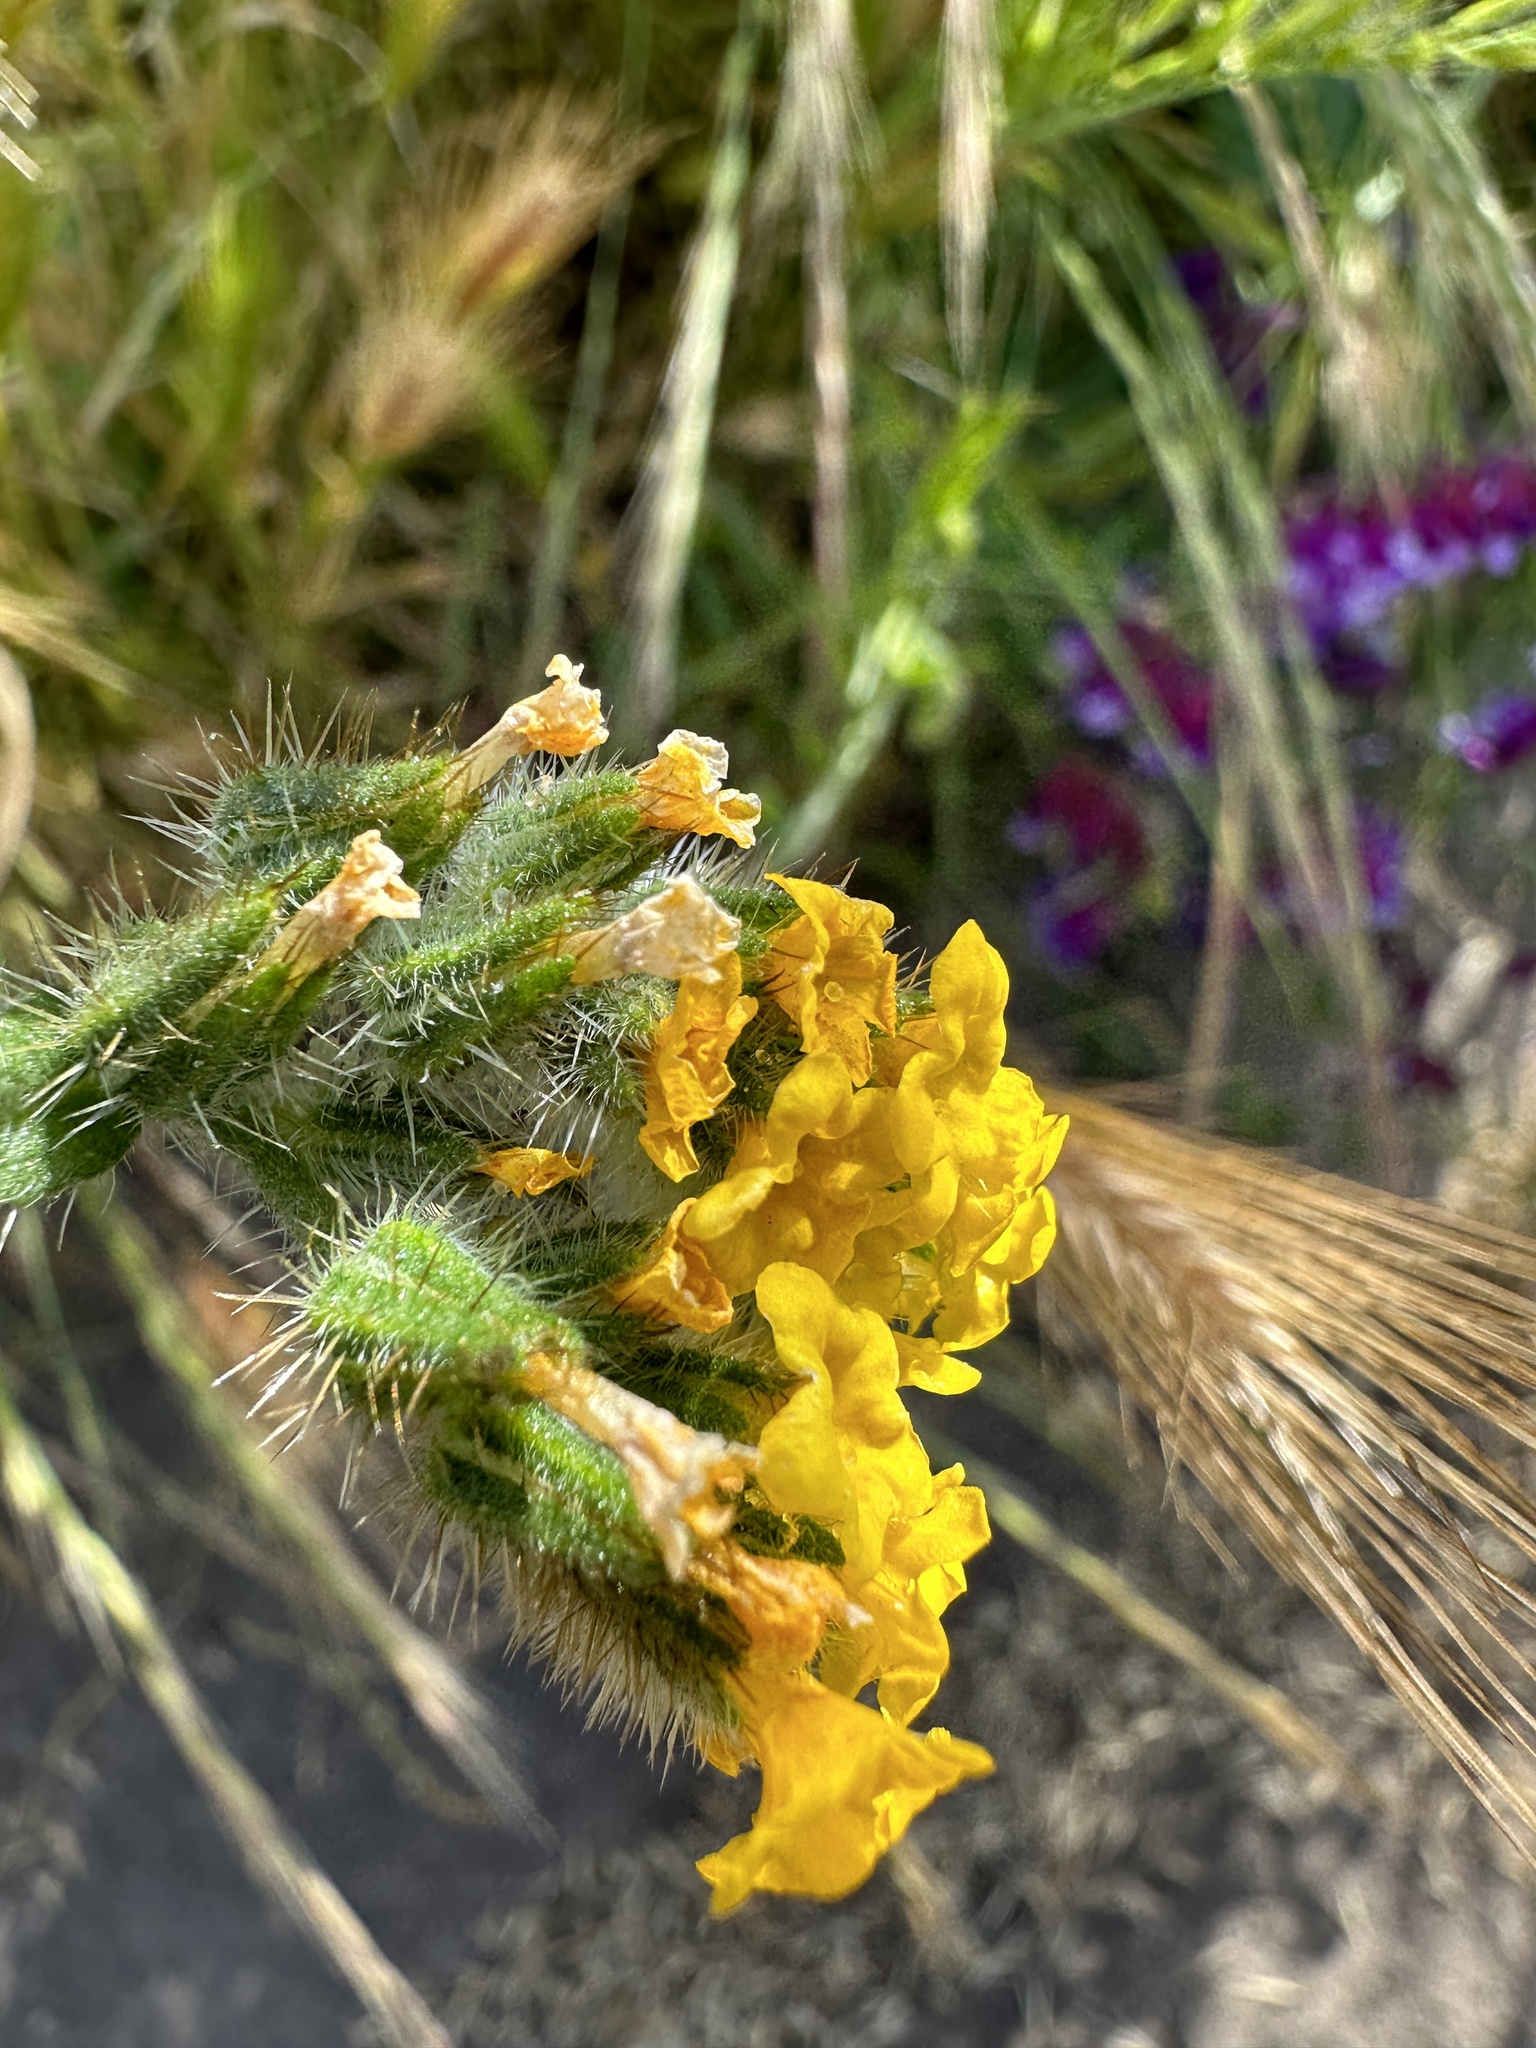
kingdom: Plantae
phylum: Tracheophyta
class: Magnoliopsida
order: Boraginales
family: Boraginaceae
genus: Amsinckia
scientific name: Amsinckia menziesii
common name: Menzies' fiddleneck
